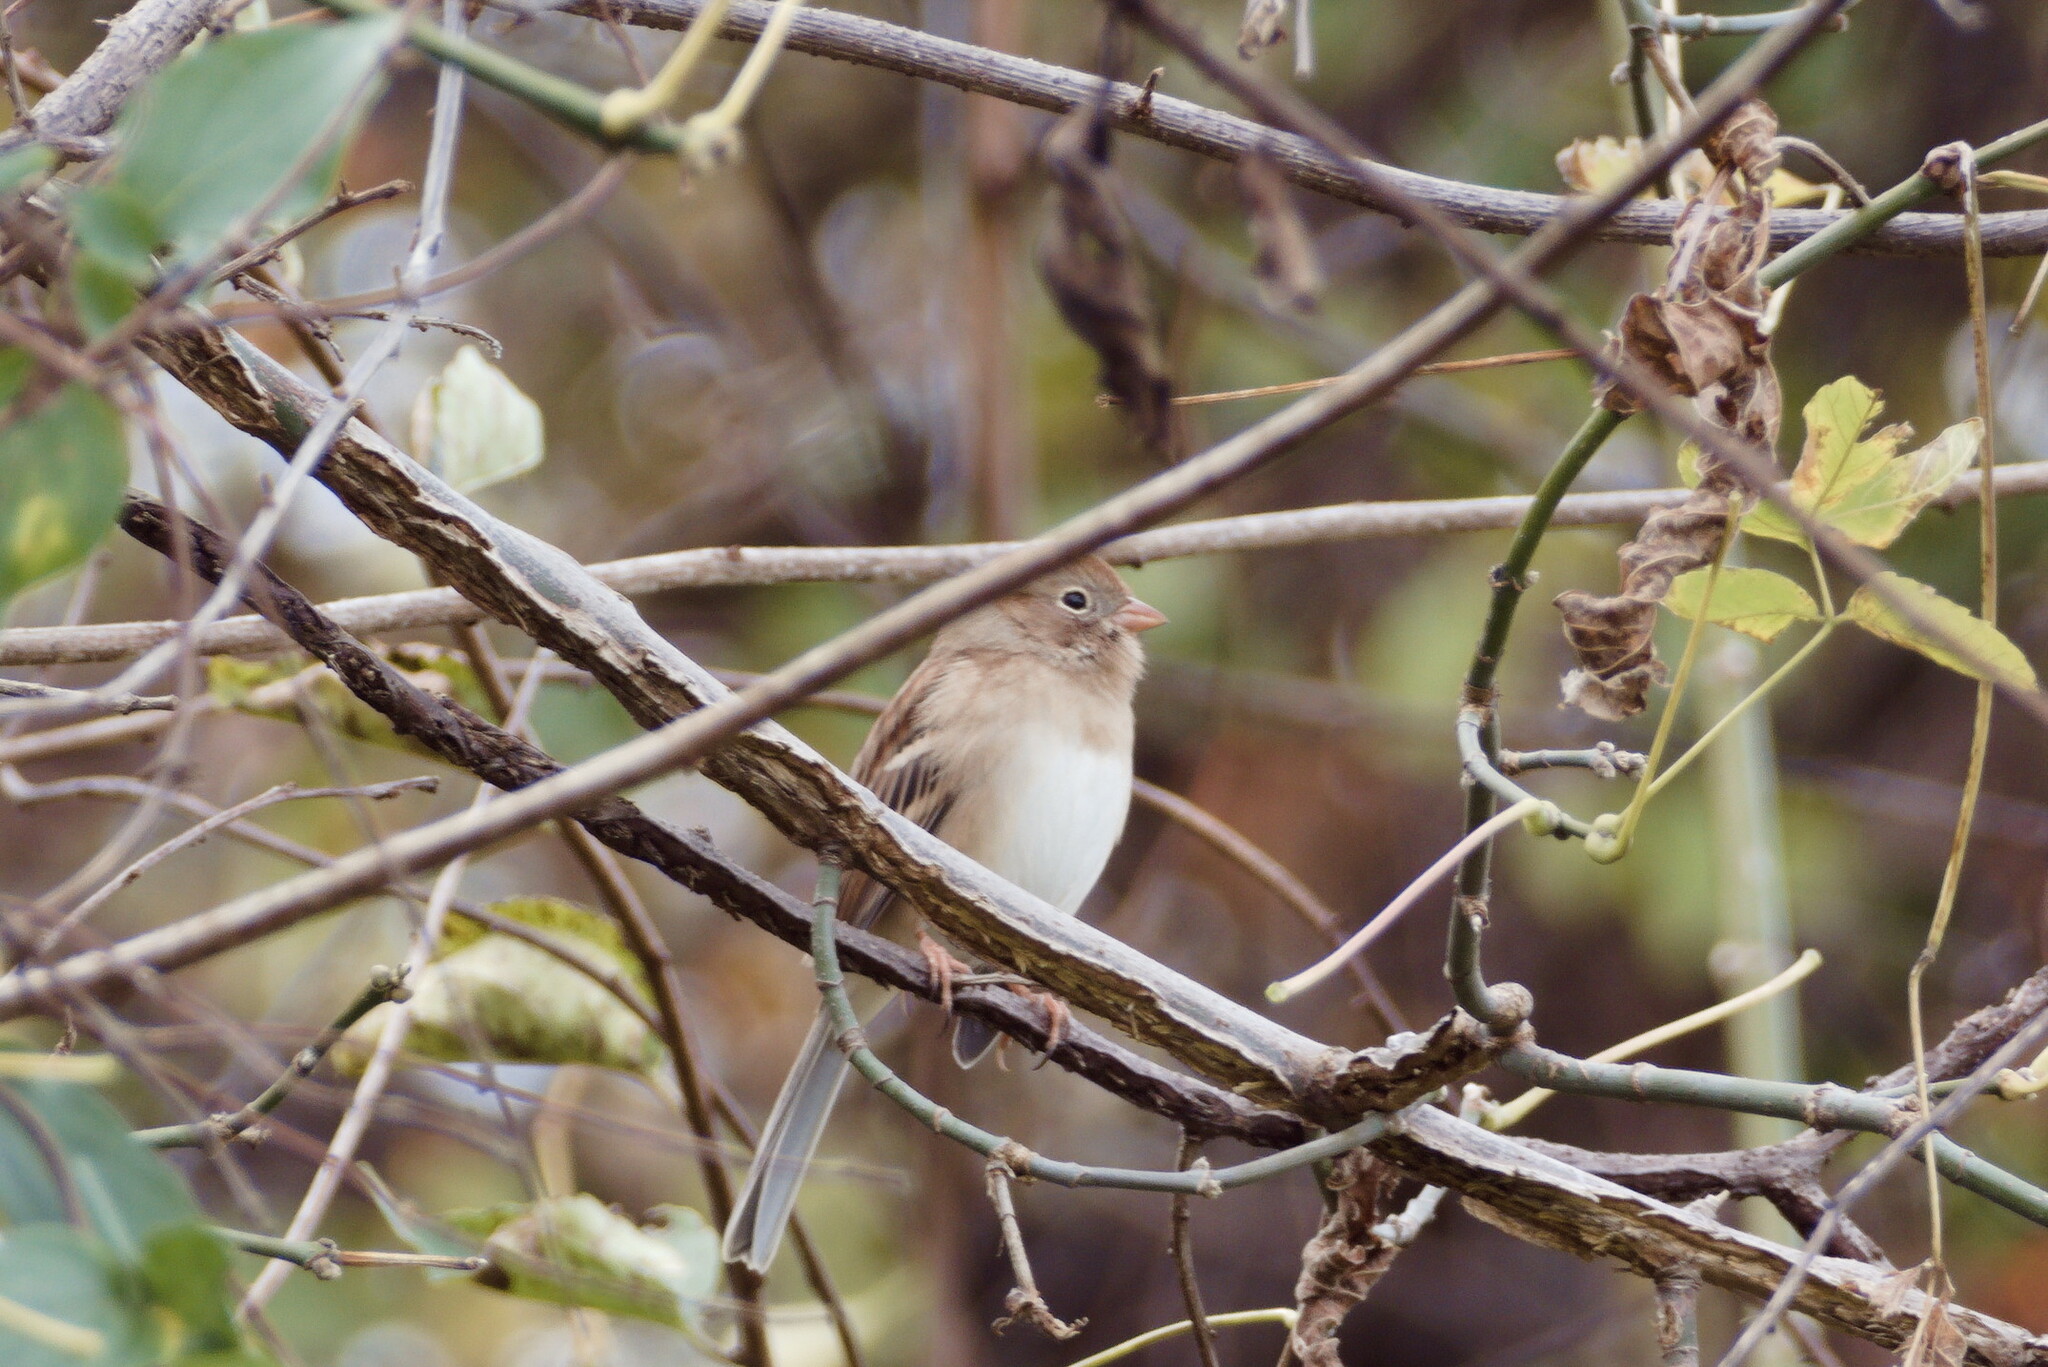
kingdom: Animalia
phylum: Chordata
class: Aves
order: Passeriformes
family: Passerellidae
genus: Spizella
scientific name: Spizella pusilla
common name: Field sparrow
